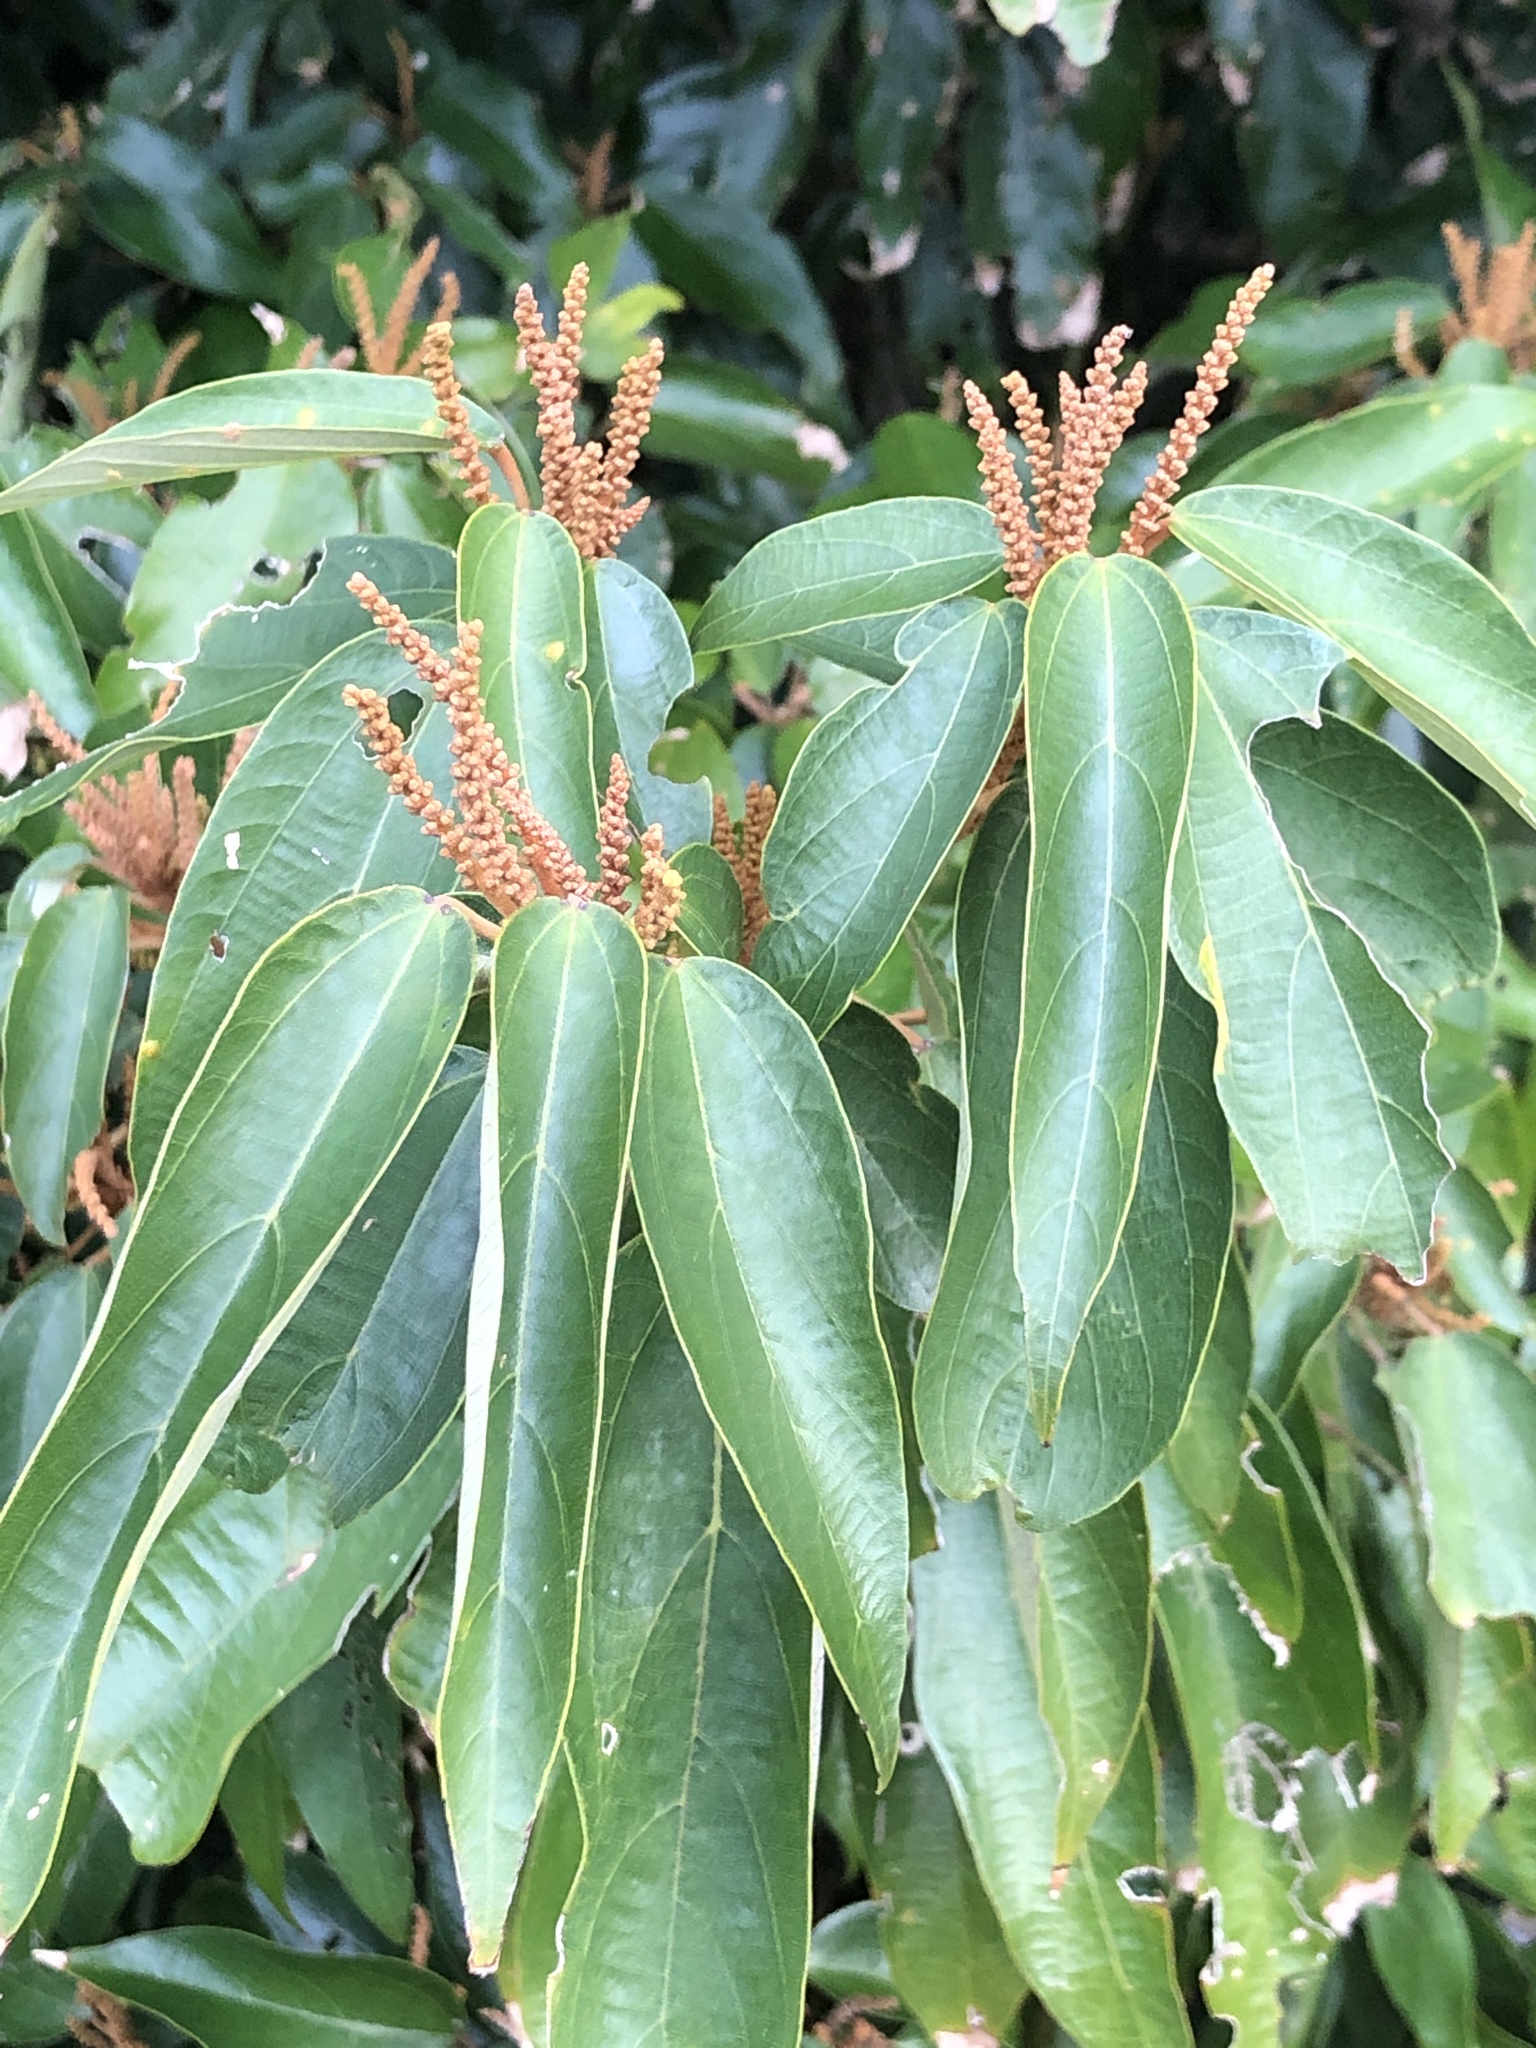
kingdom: Plantae
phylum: Tracheophyta
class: Magnoliopsida
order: Malpighiales
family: Euphorbiaceae
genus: Mallotus
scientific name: Mallotus philippensis
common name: Kamala tree
